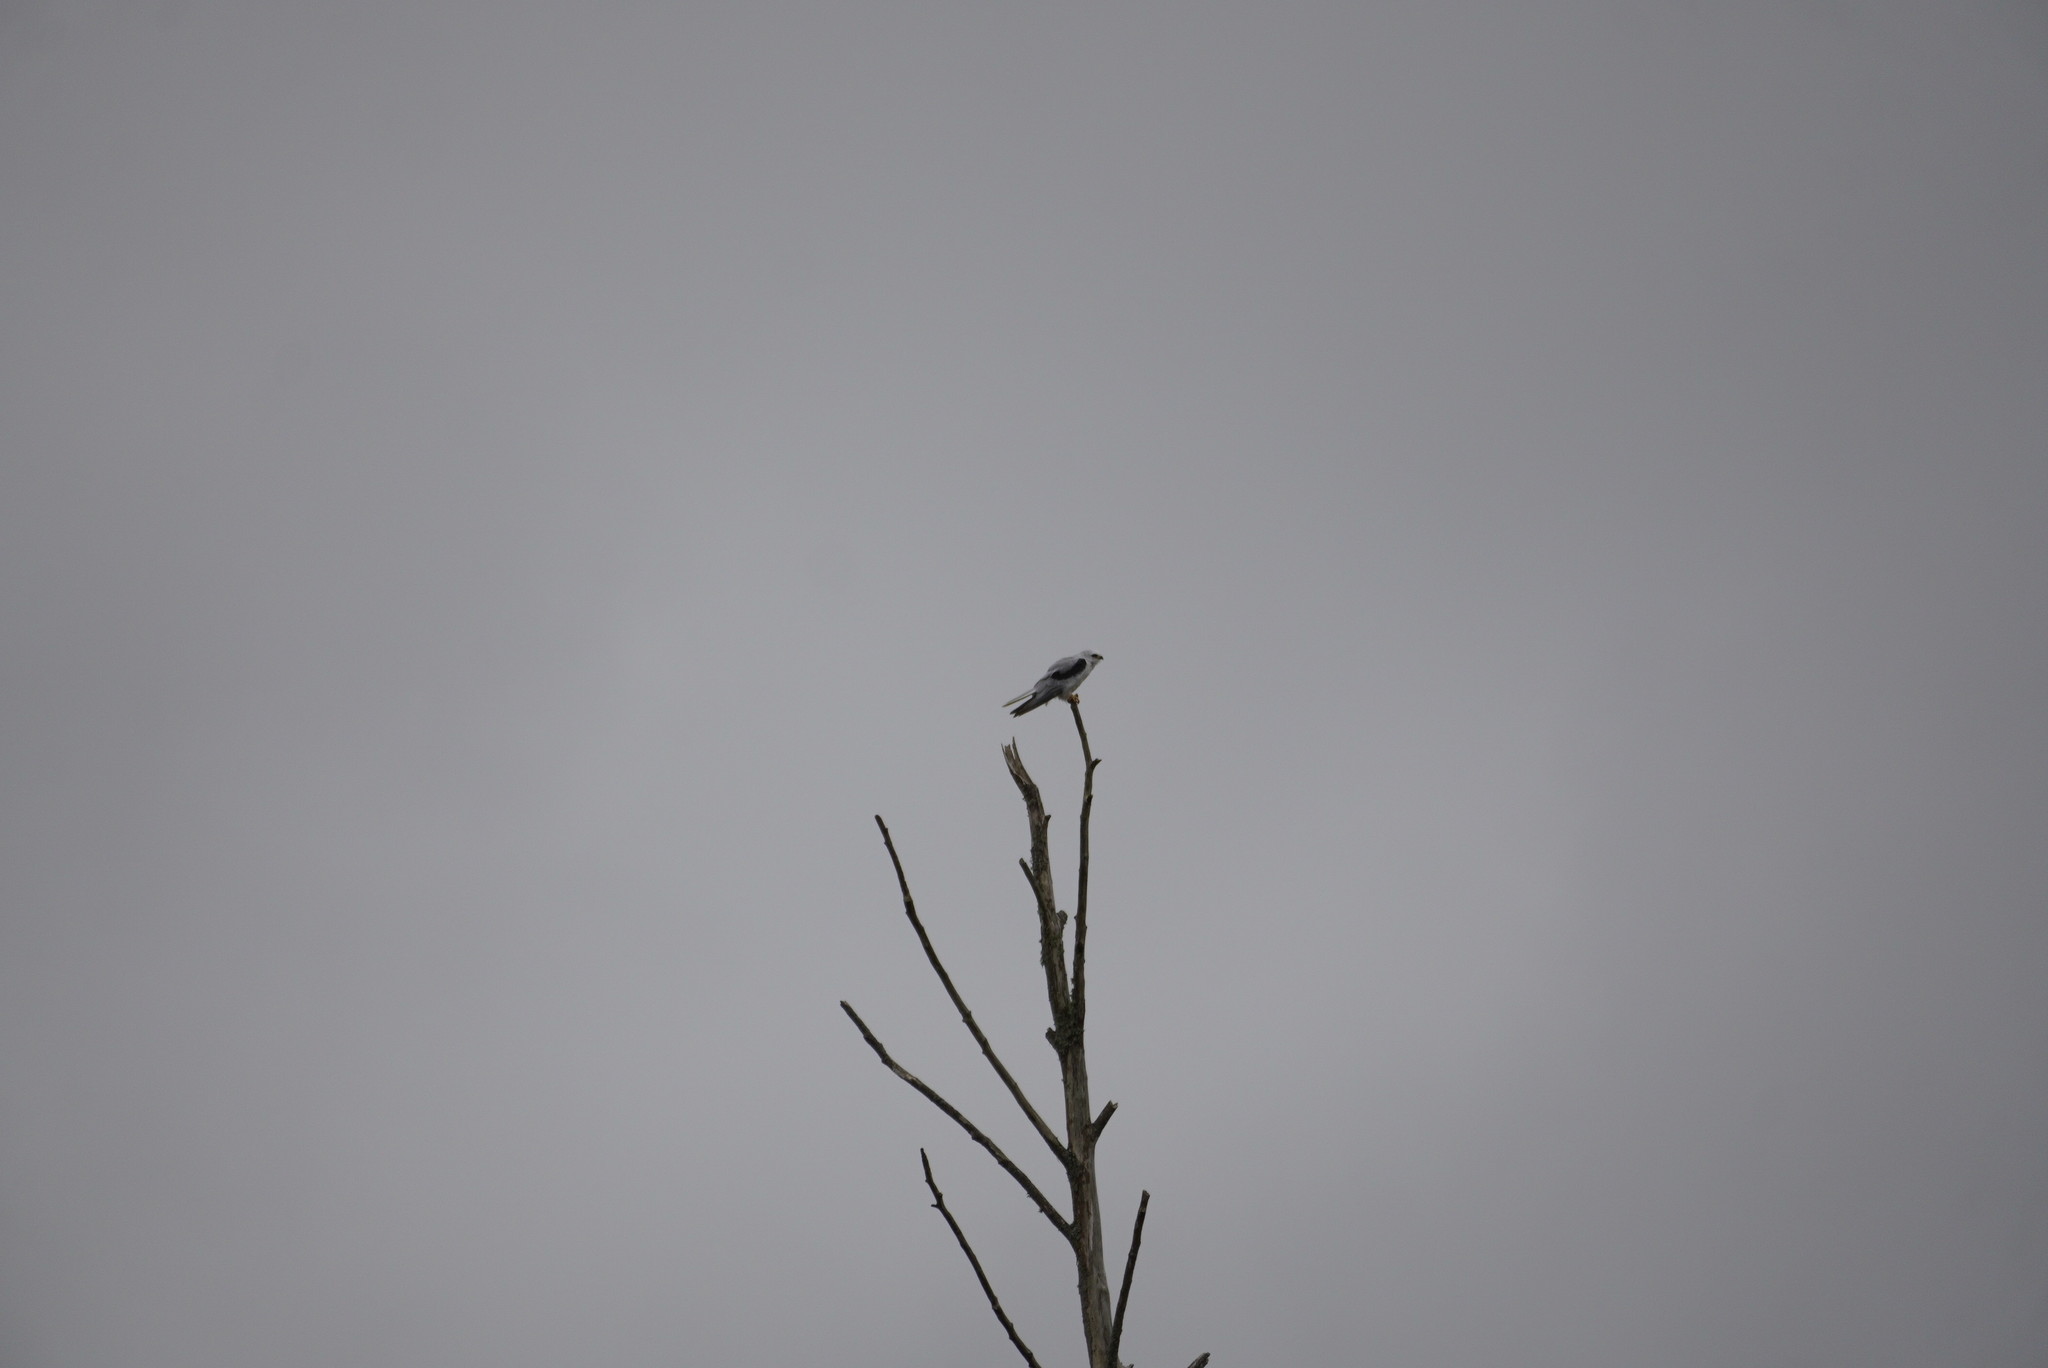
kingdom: Animalia
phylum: Chordata
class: Aves
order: Accipitriformes
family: Accipitridae
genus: Elanus
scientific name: Elanus leucurus
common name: White-tailed kite
